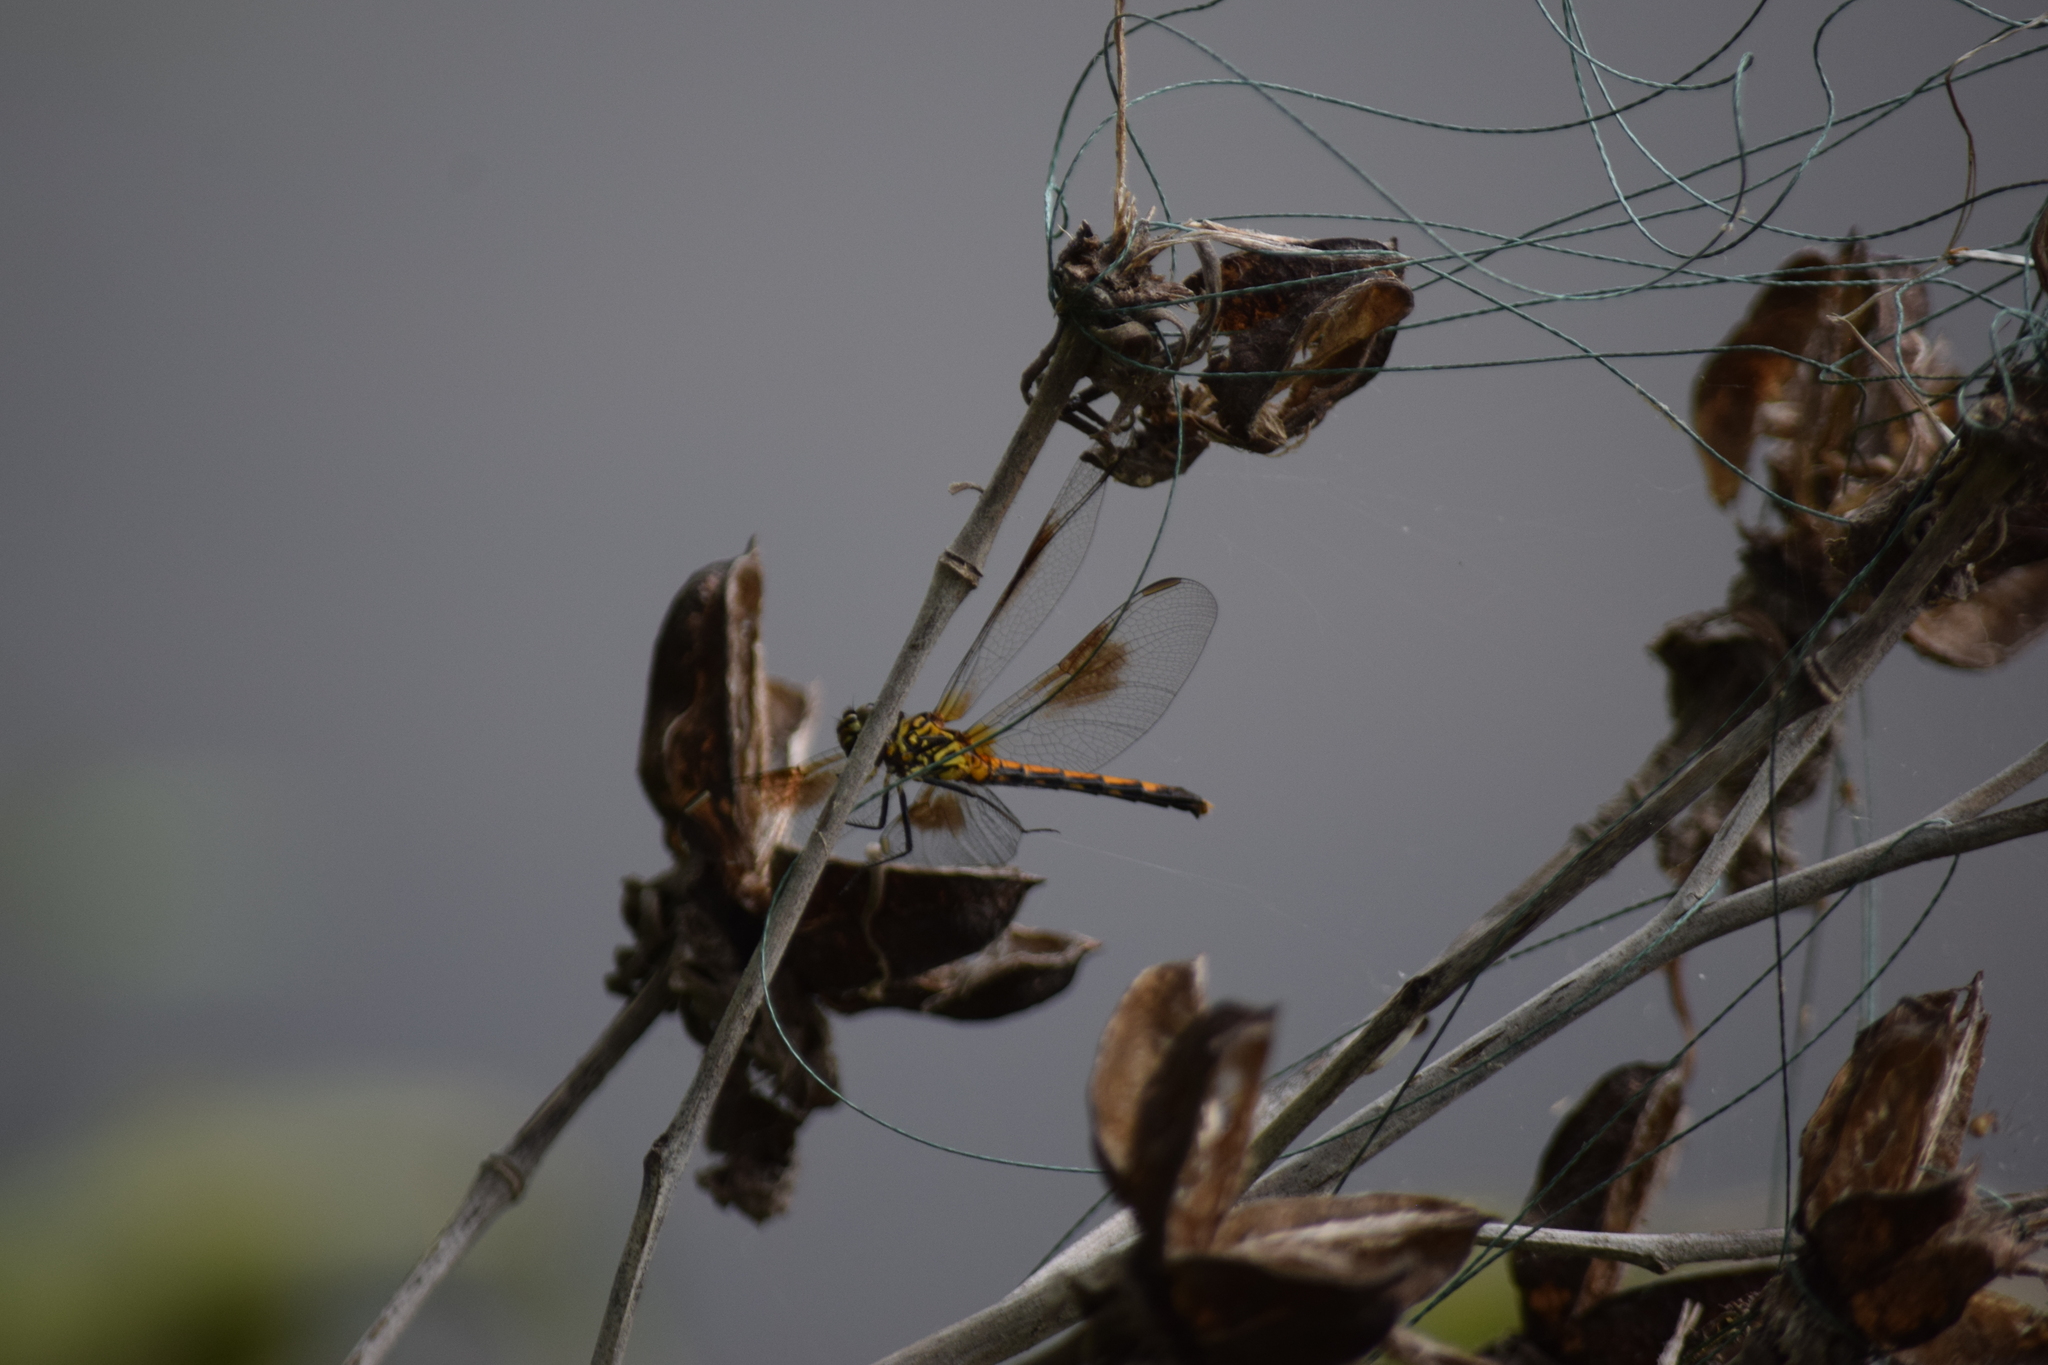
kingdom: Animalia
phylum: Arthropoda
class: Insecta
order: Odonata
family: Libellulidae
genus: Erythrodiplax
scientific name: Erythrodiplax berenice
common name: Seaside dragonlet
